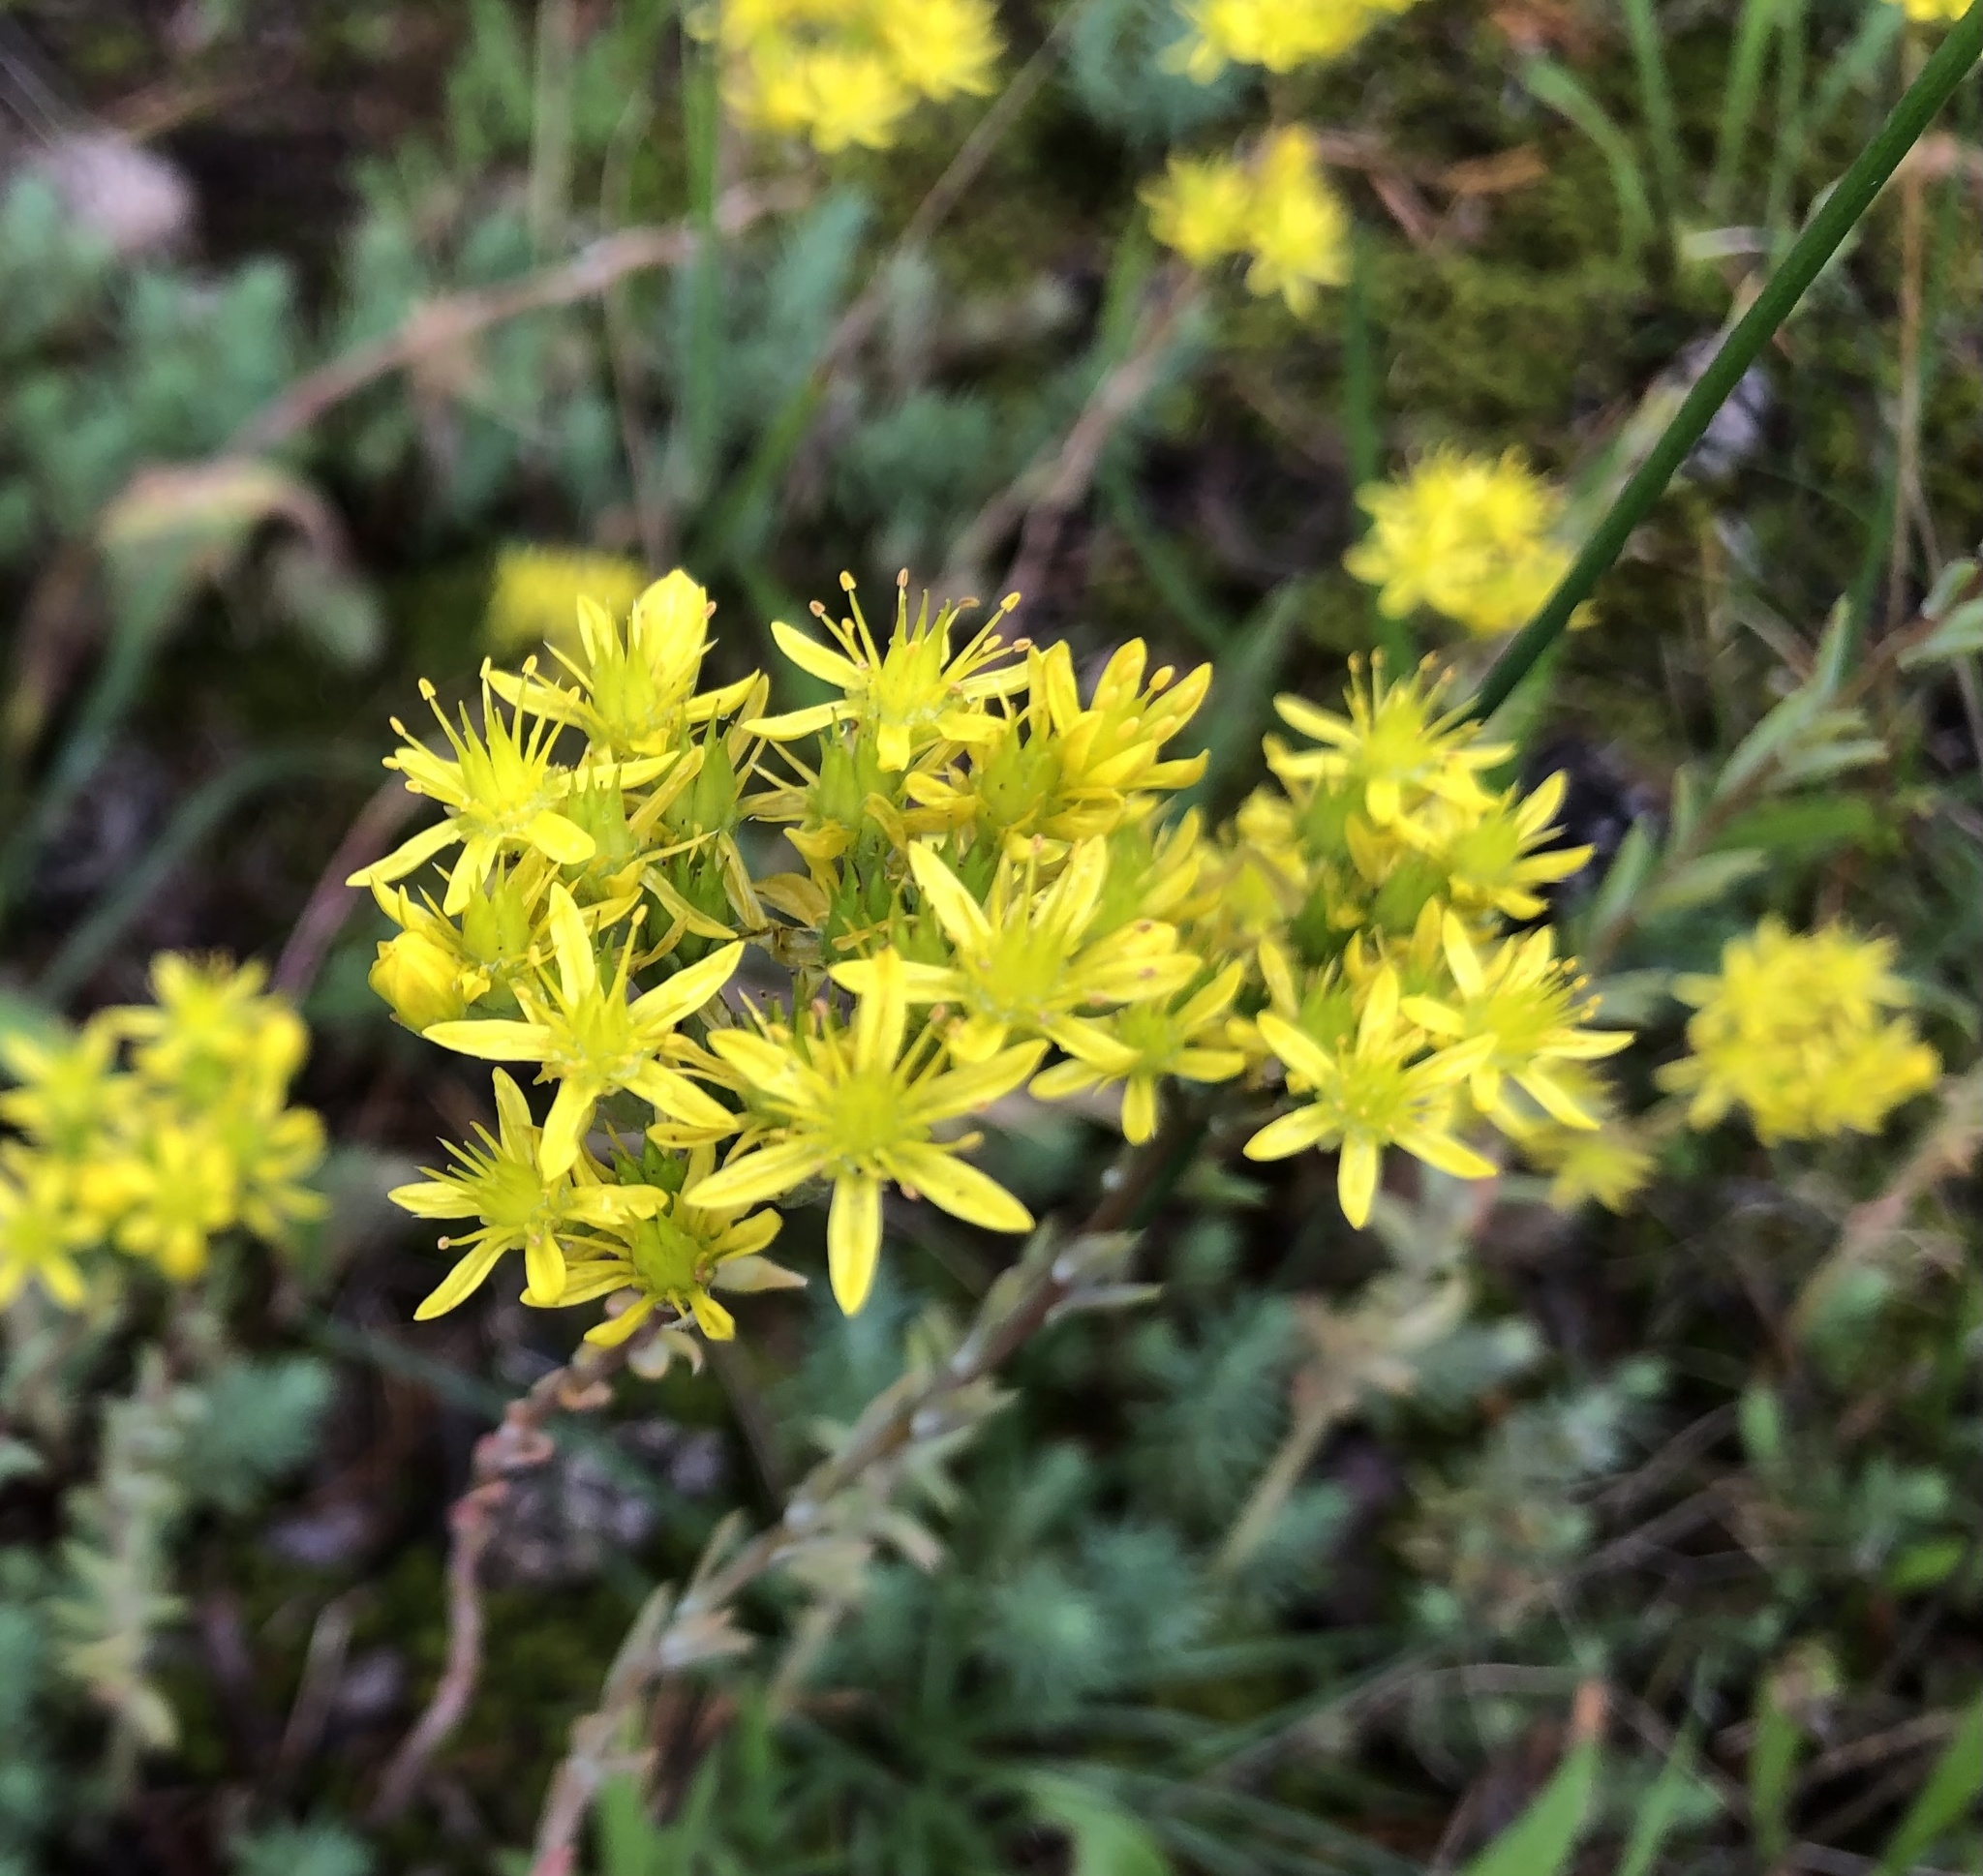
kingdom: Plantae
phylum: Tracheophyta
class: Magnoliopsida
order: Saxifragales
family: Crassulaceae
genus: Petrosedum
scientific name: Petrosedum rupestre
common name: Jenny's stonecrop
